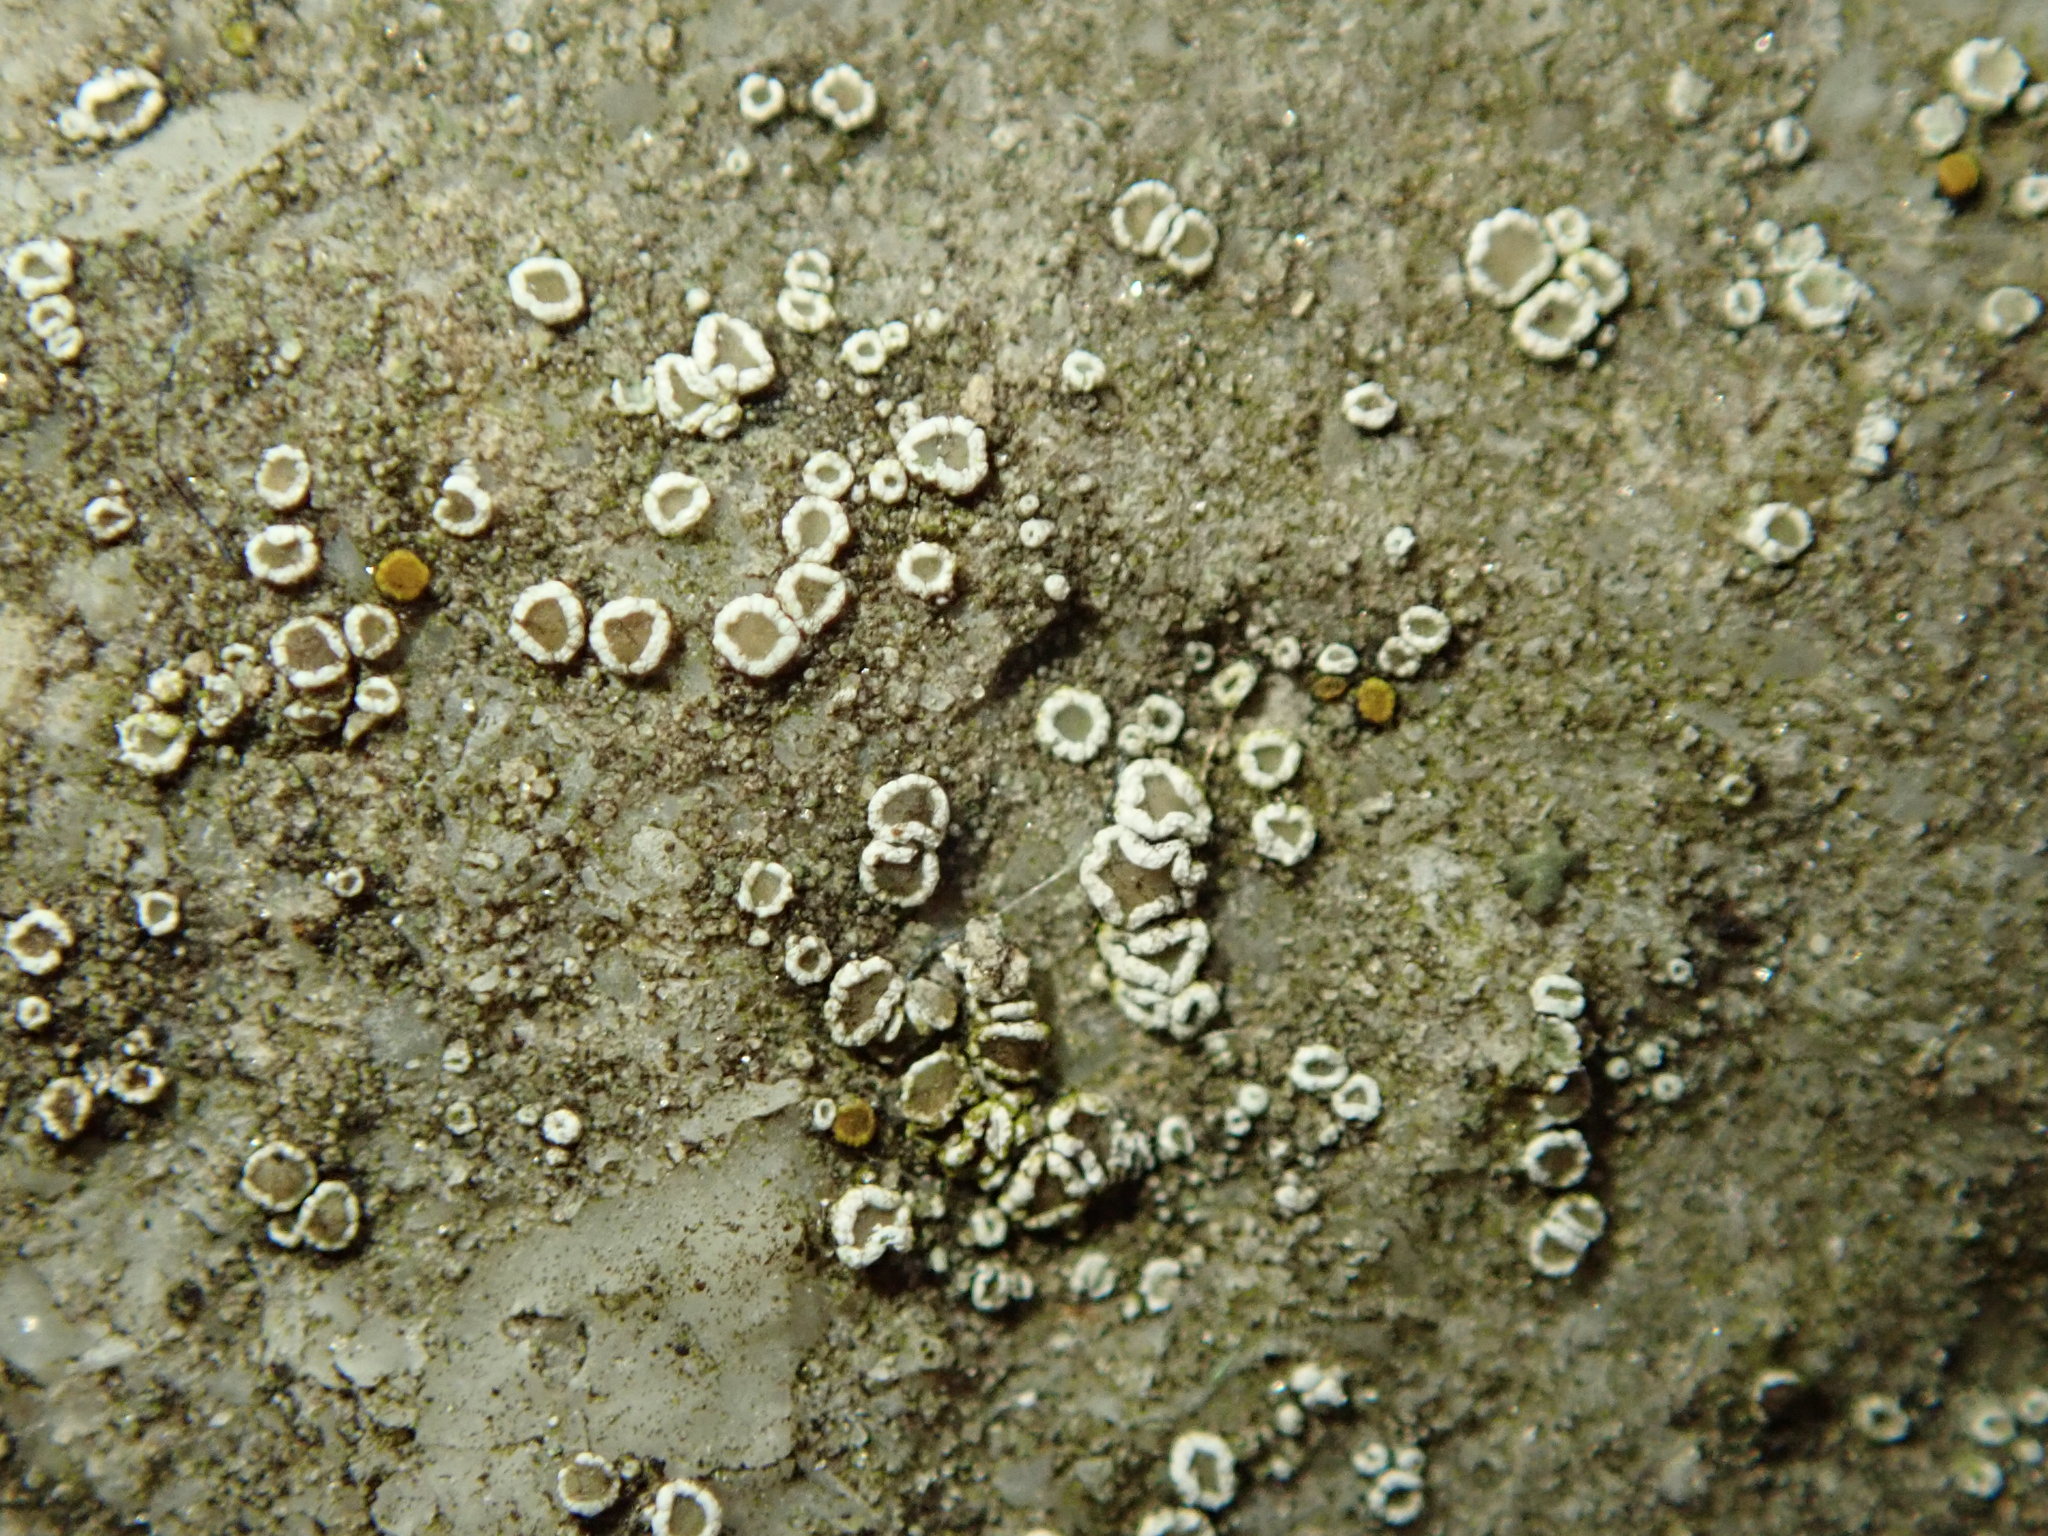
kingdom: Fungi
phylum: Ascomycota
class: Lecanoromycetes
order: Lecanorales
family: Lecanoraceae
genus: Polyozosia
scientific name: Polyozosia dispersa
